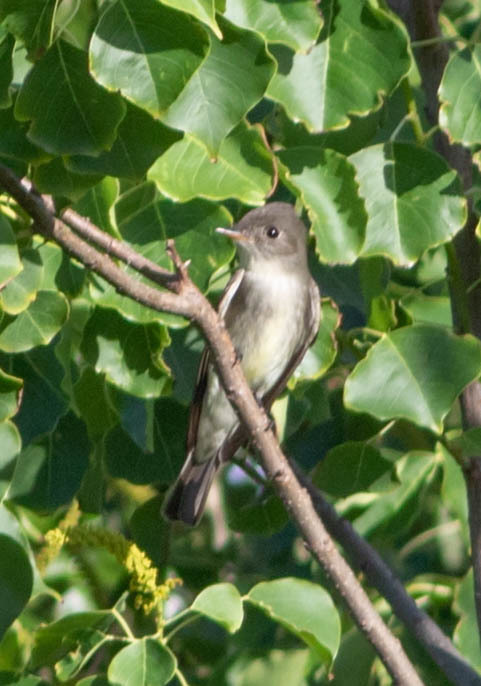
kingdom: Animalia
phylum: Chordata
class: Aves
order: Passeriformes
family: Tyrannidae
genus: Contopus
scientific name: Contopus virens
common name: Eastern wood-pewee
